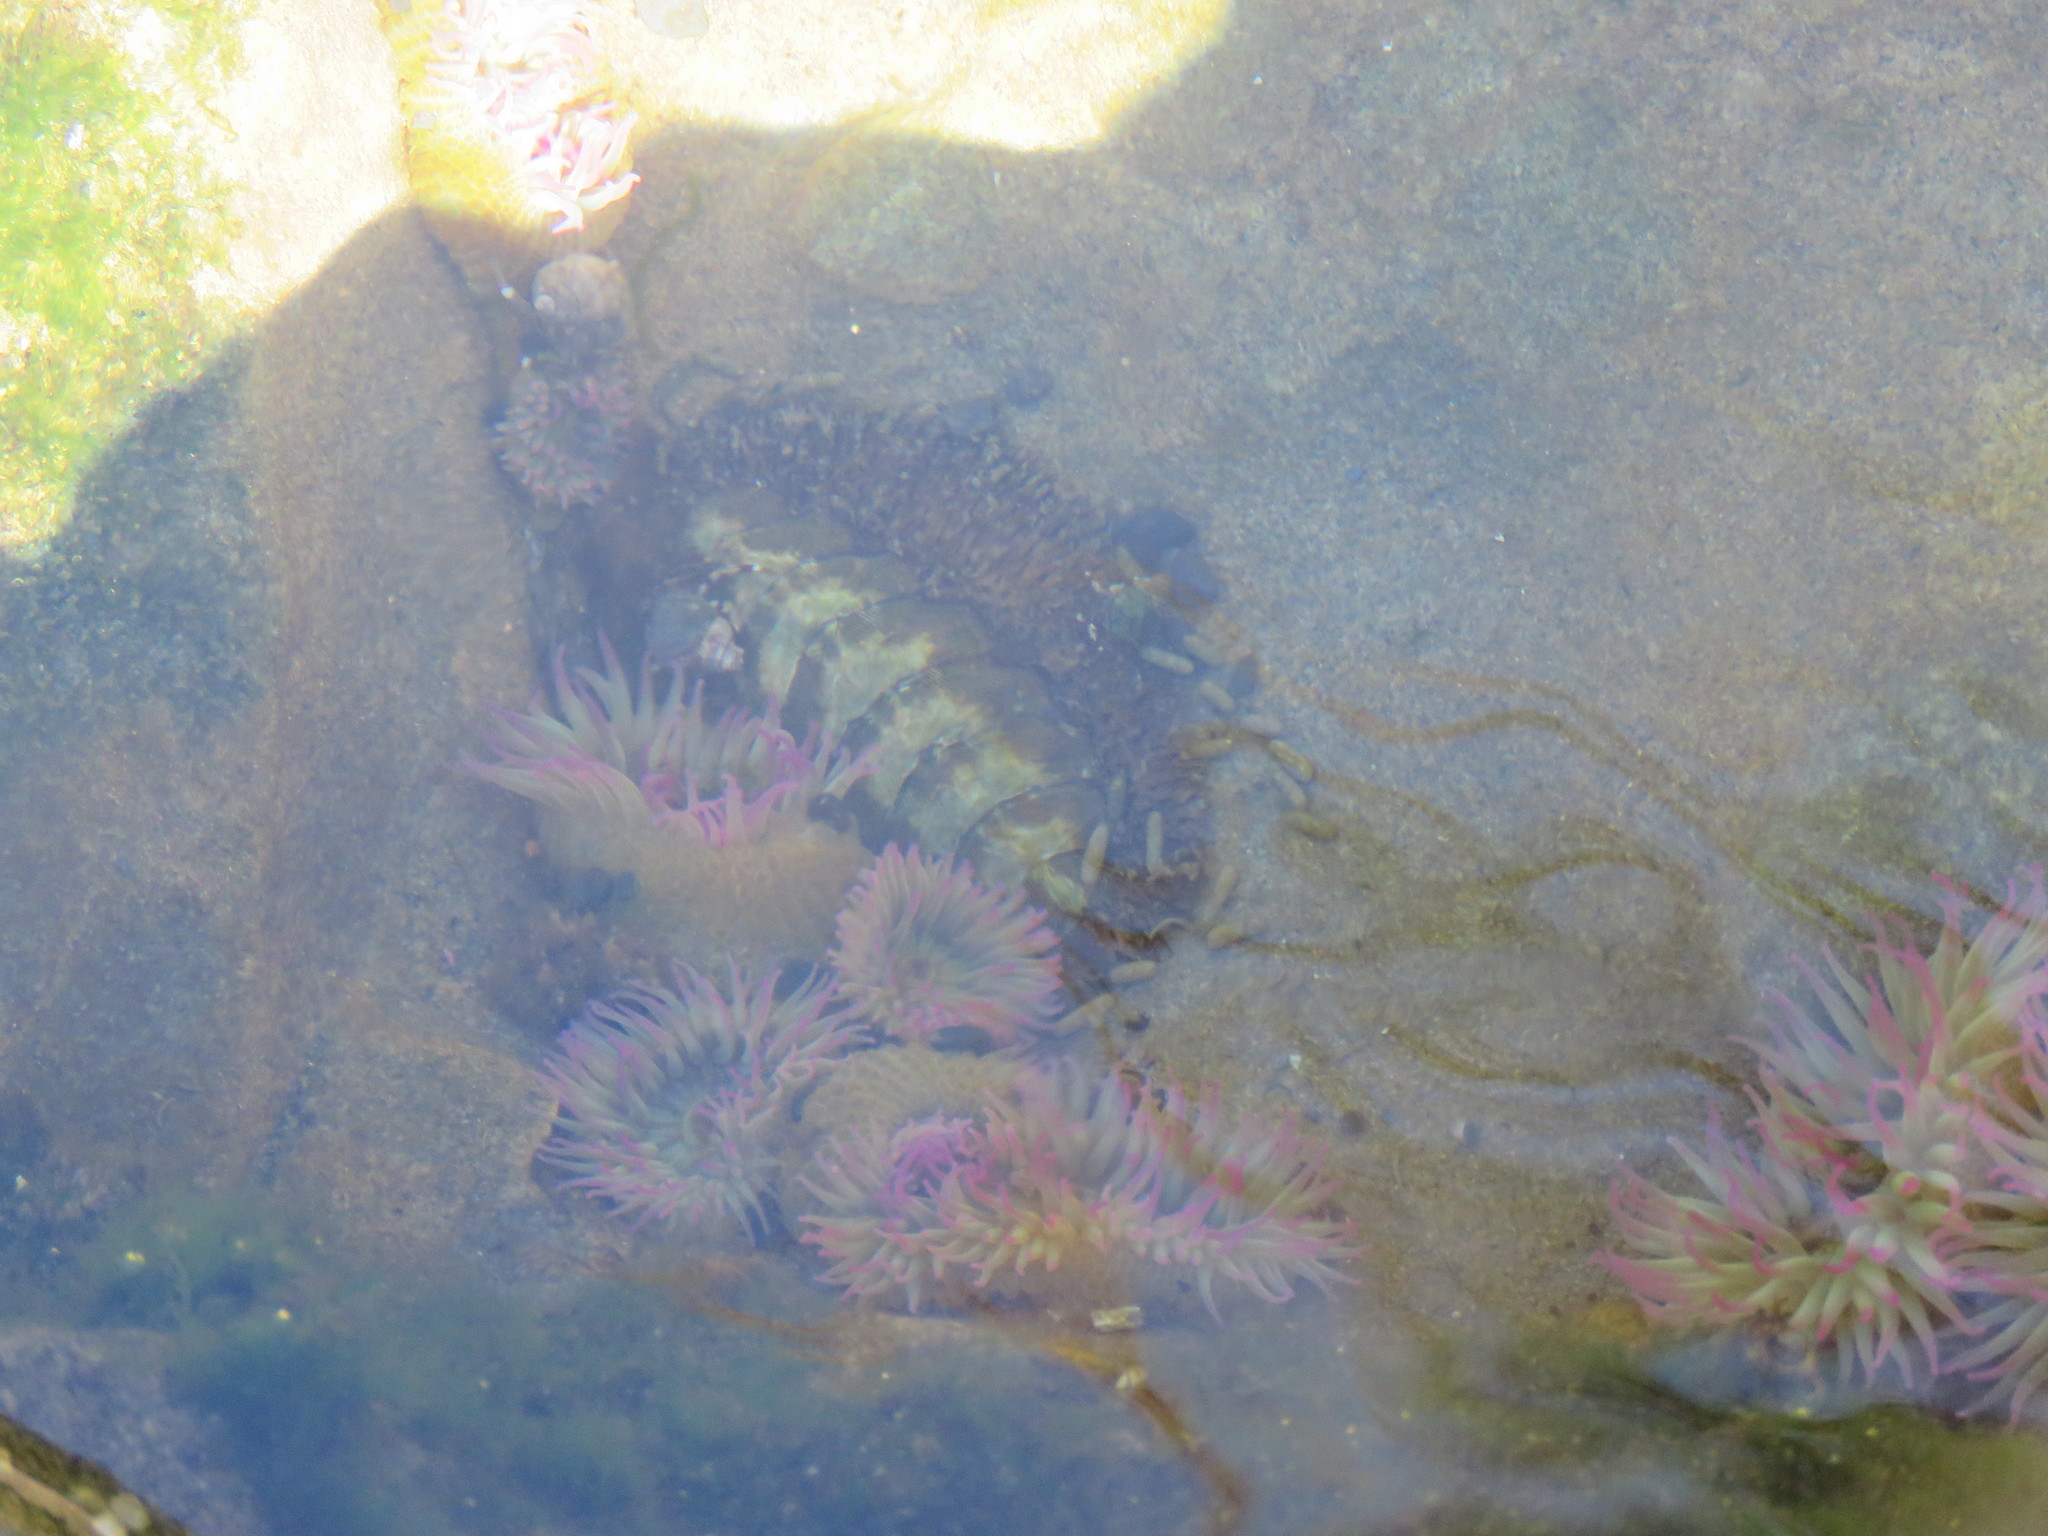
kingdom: Animalia
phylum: Cnidaria
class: Anthozoa
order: Actiniaria
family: Actiniidae
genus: Anthopleura
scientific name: Anthopleura elegantissima
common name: Clonal anemone
